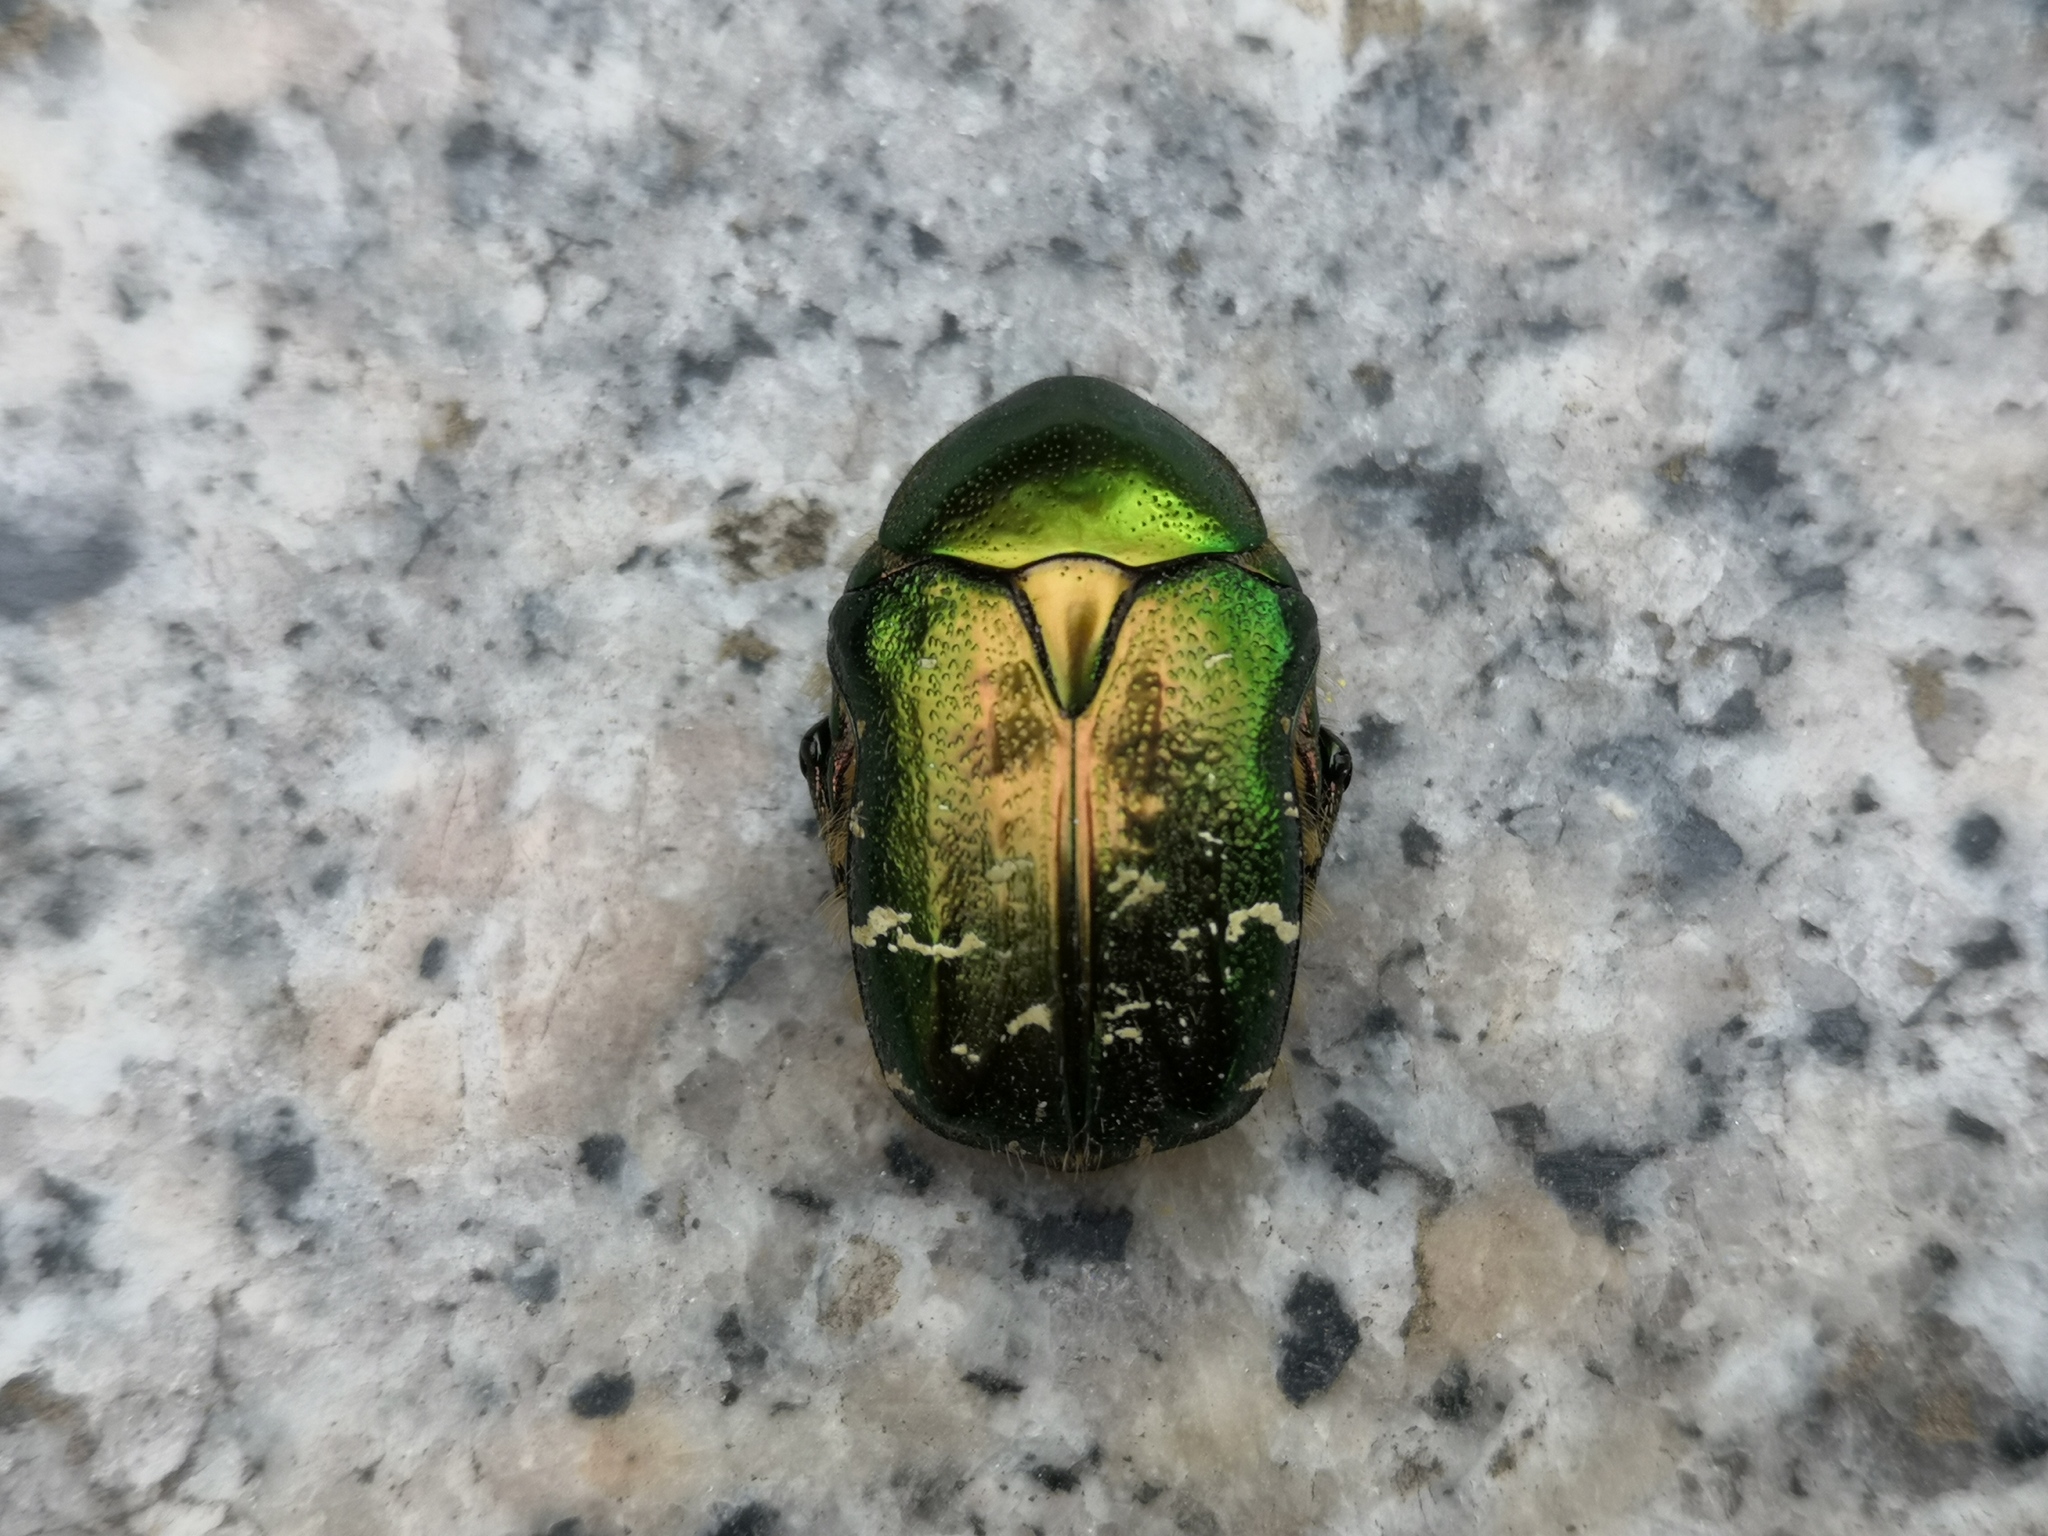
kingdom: Animalia
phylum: Arthropoda
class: Insecta
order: Coleoptera
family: Scarabaeidae
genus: Cetonia
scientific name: Cetonia aurata
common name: Rose chafer
